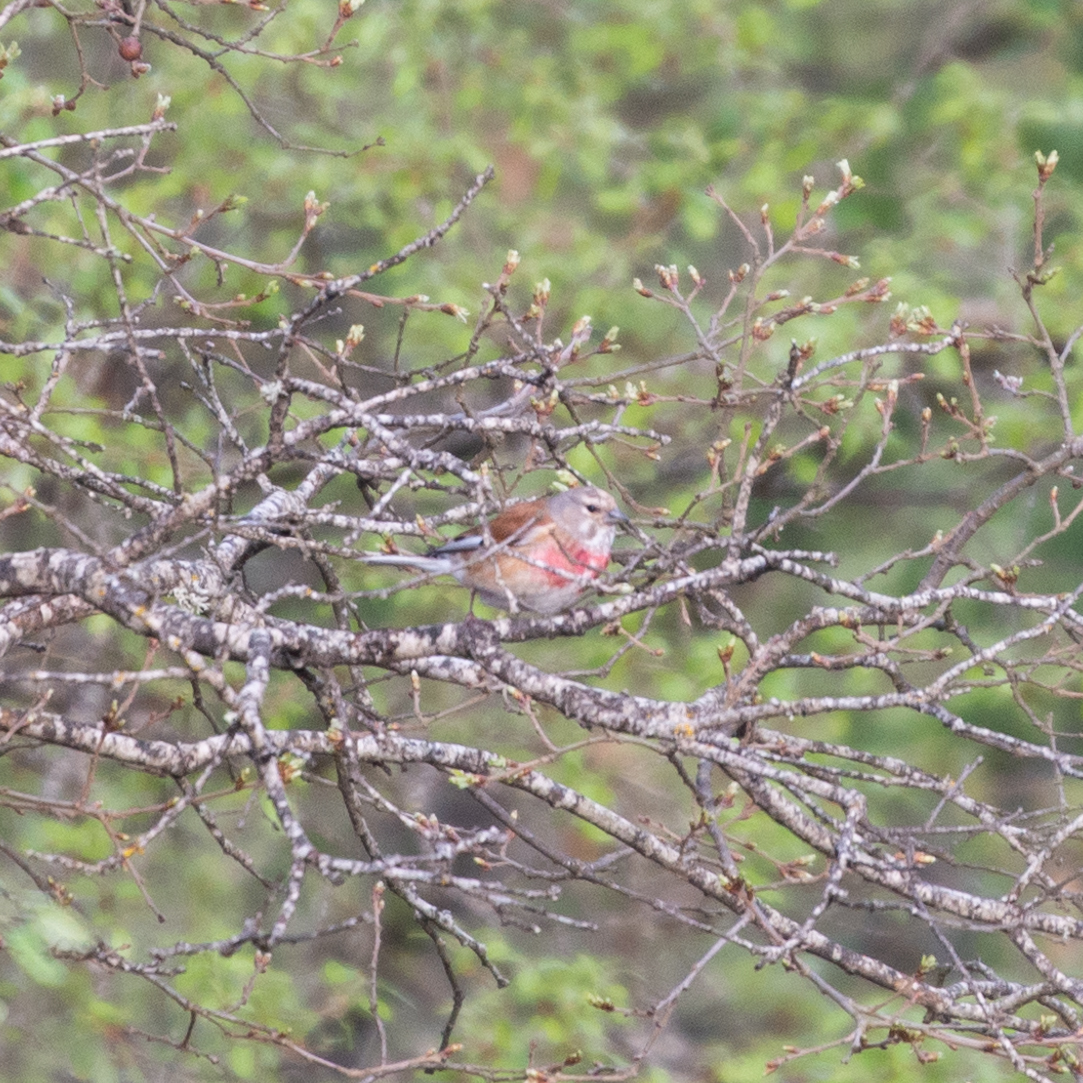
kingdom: Animalia
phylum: Chordata
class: Aves
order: Passeriformes
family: Fringillidae
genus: Linaria
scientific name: Linaria cannabina
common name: Common linnet
